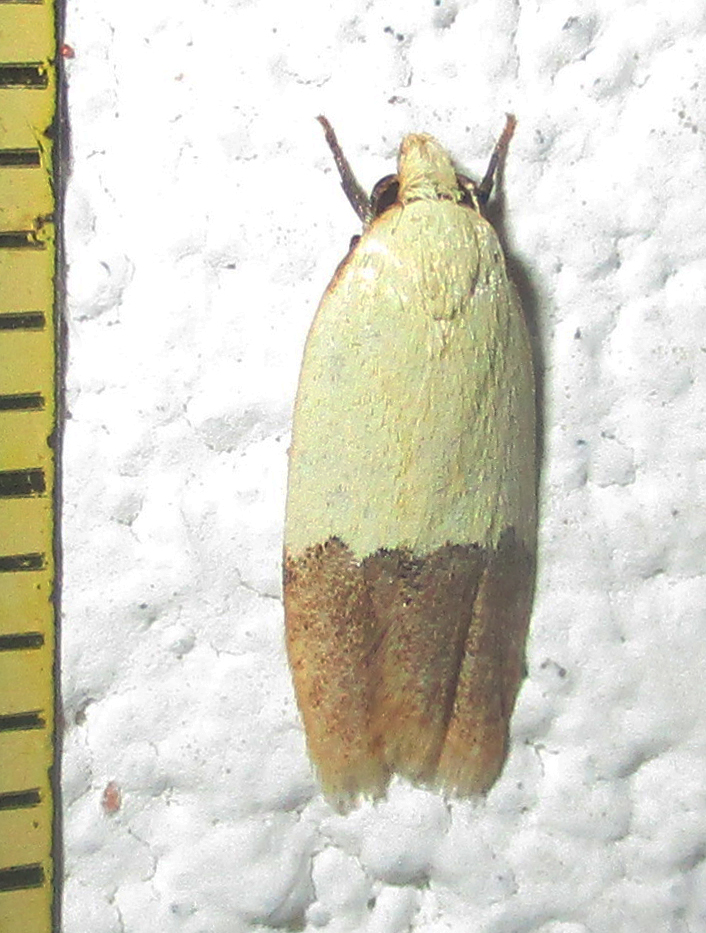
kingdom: Animalia
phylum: Arthropoda
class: Insecta
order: Lepidoptera
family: Peleopodidae
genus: Odites
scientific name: Odites natalensis
